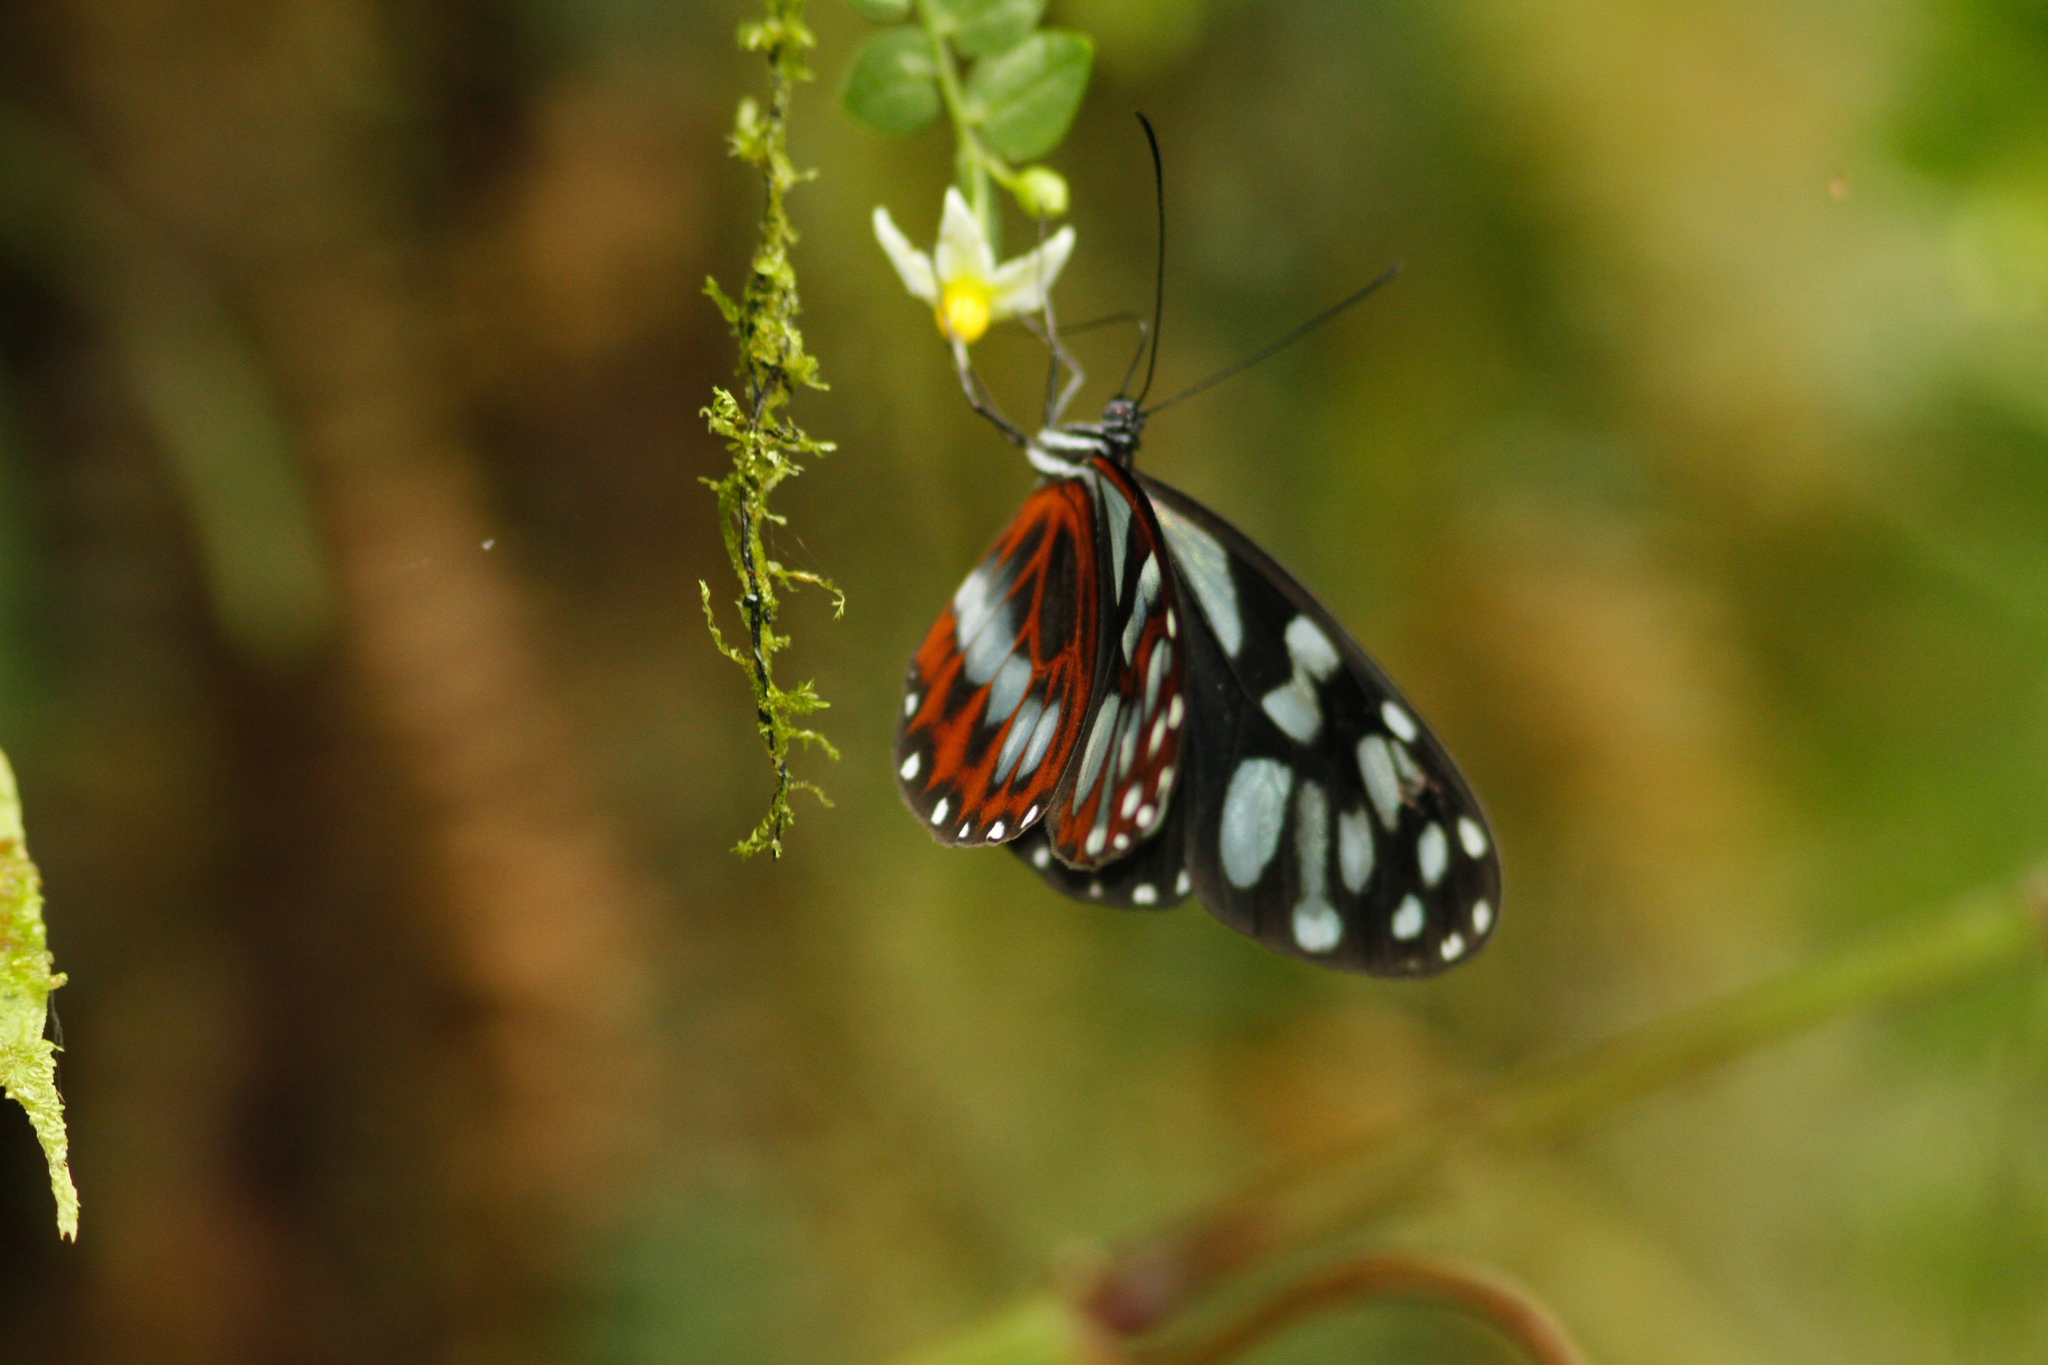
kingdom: Animalia
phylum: Arthropoda
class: Insecta
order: Lepidoptera
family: Nymphalidae
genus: Oleria
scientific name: Oleria cyrene
